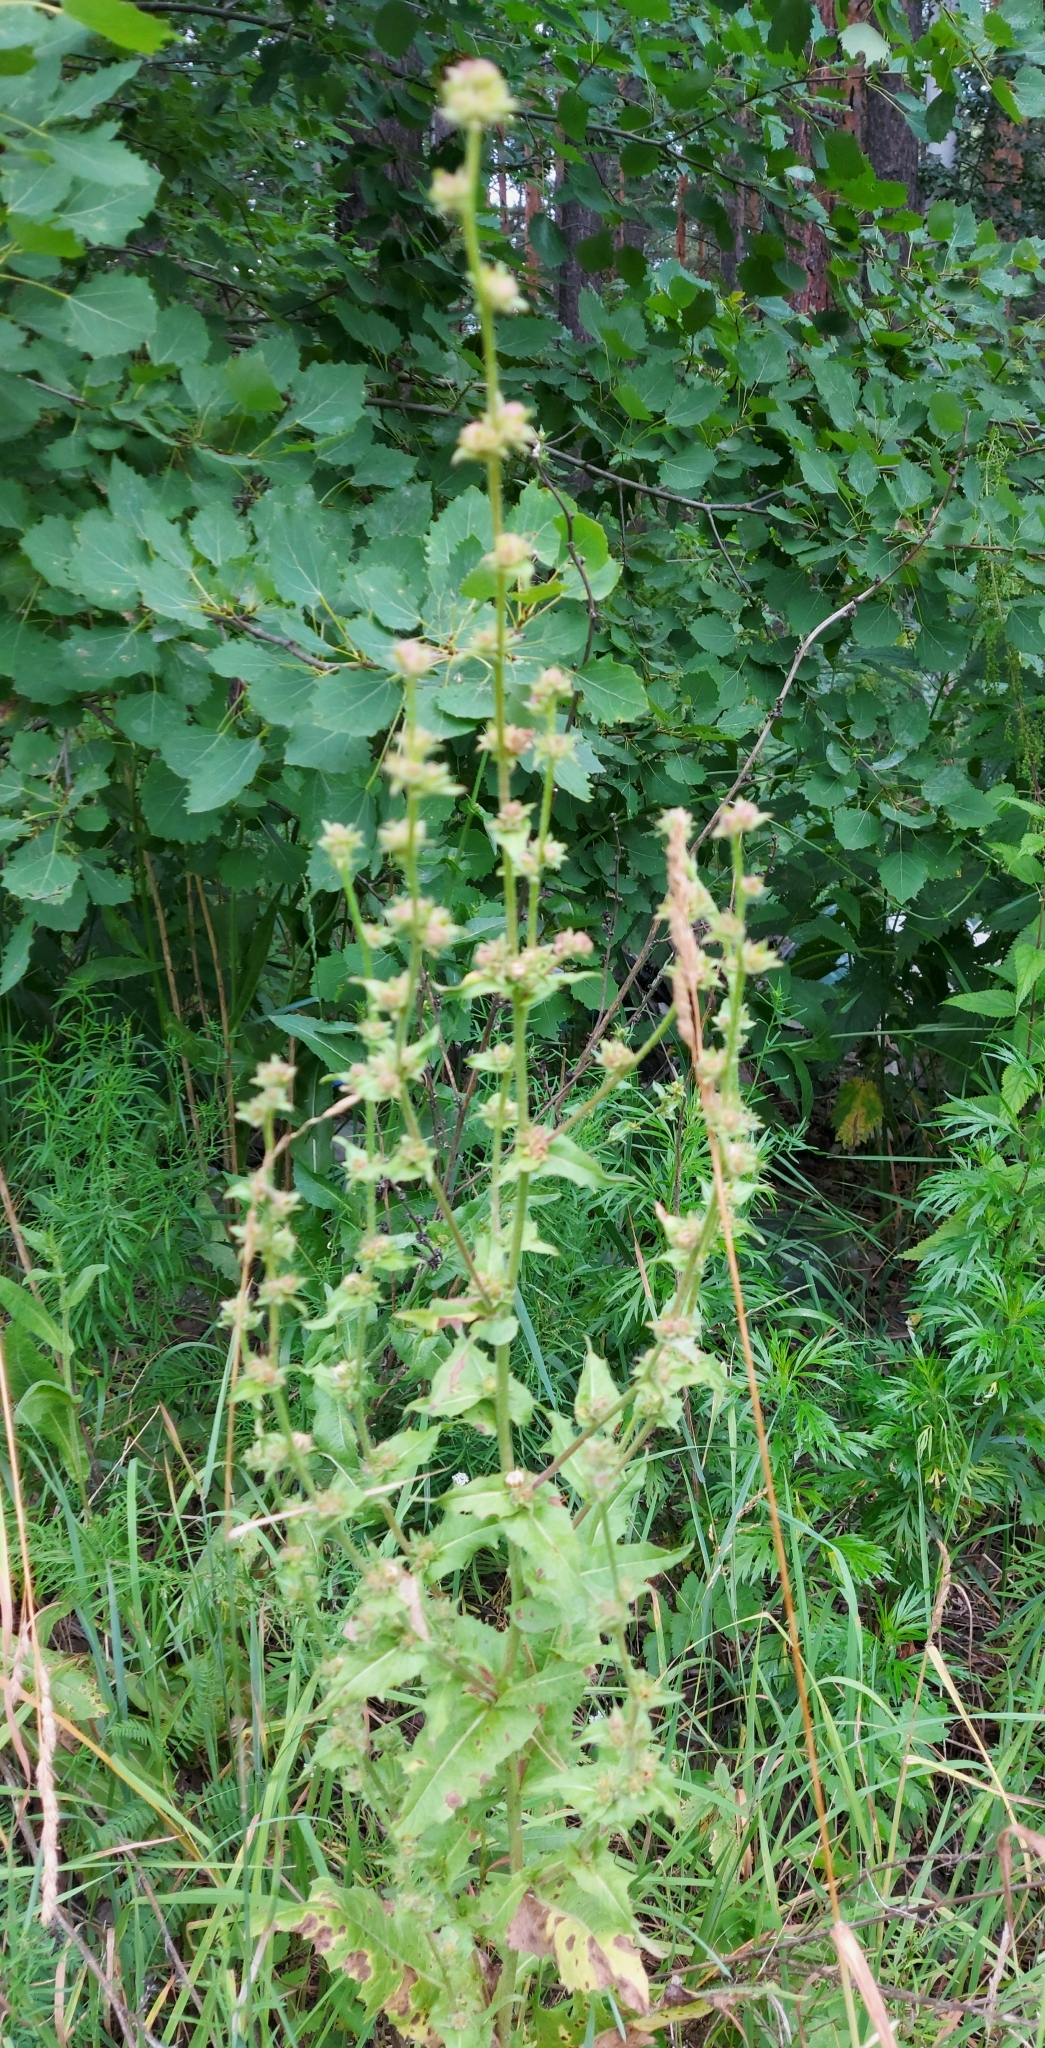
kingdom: Plantae
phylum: Tracheophyta
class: Magnoliopsida
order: Asterales
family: Asteraceae
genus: Cichorium
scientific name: Cichorium intybus
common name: Chicory
